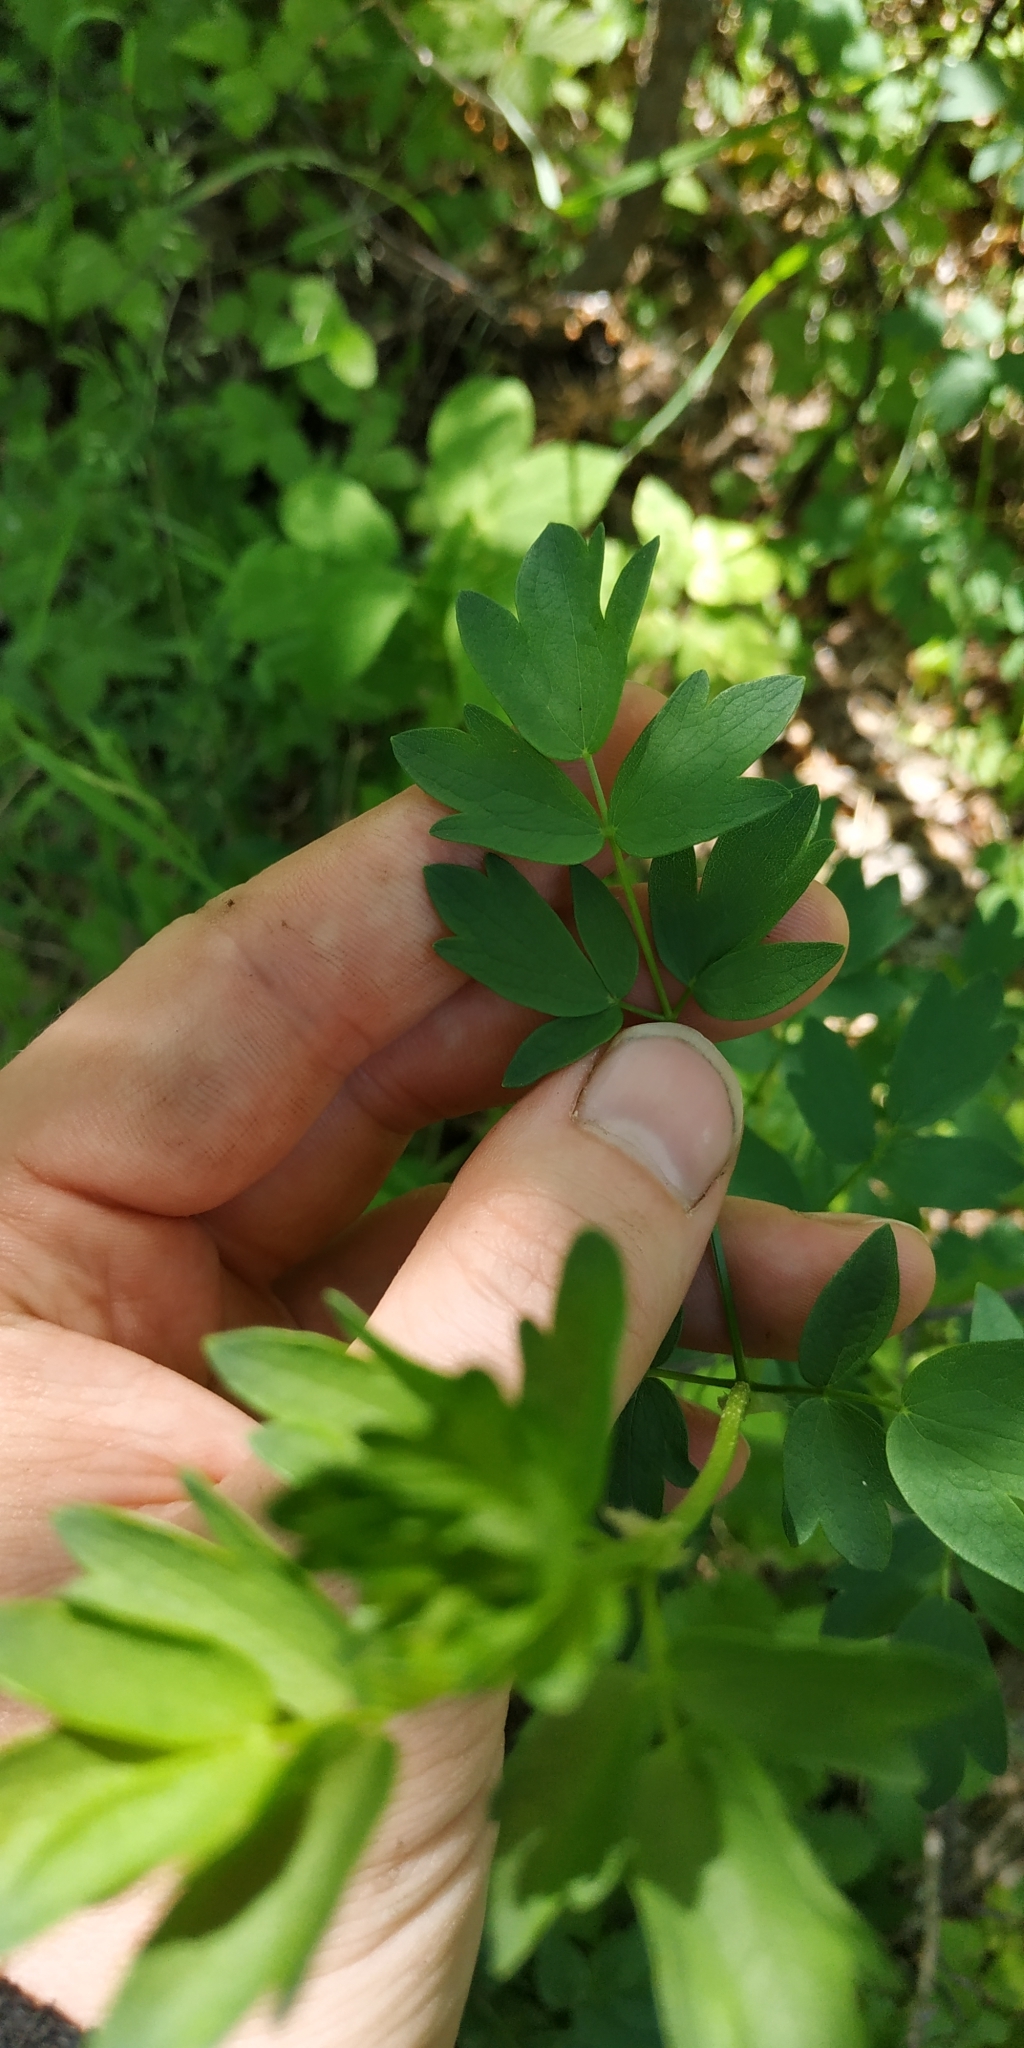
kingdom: Plantae
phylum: Tracheophyta
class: Magnoliopsida
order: Ranunculales
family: Ranunculaceae
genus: Thalictrum
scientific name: Thalictrum minus
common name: Lesser meadow-rue
